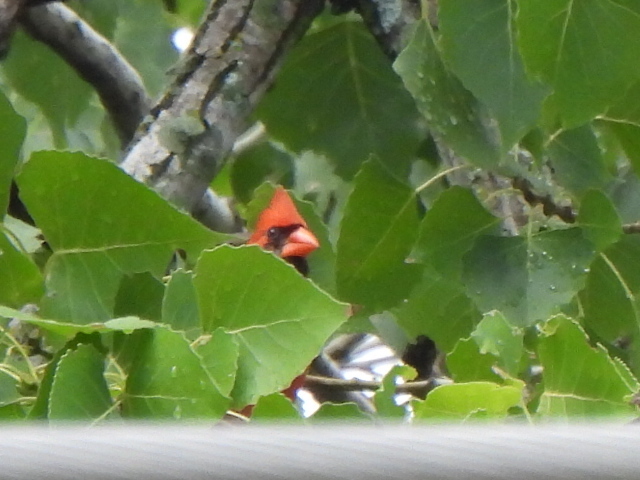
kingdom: Animalia
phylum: Chordata
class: Aves
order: Passeriformes
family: Cardinalidae
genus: Cardinalis
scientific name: Cardinalis cardinalis
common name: Northern cardinal
